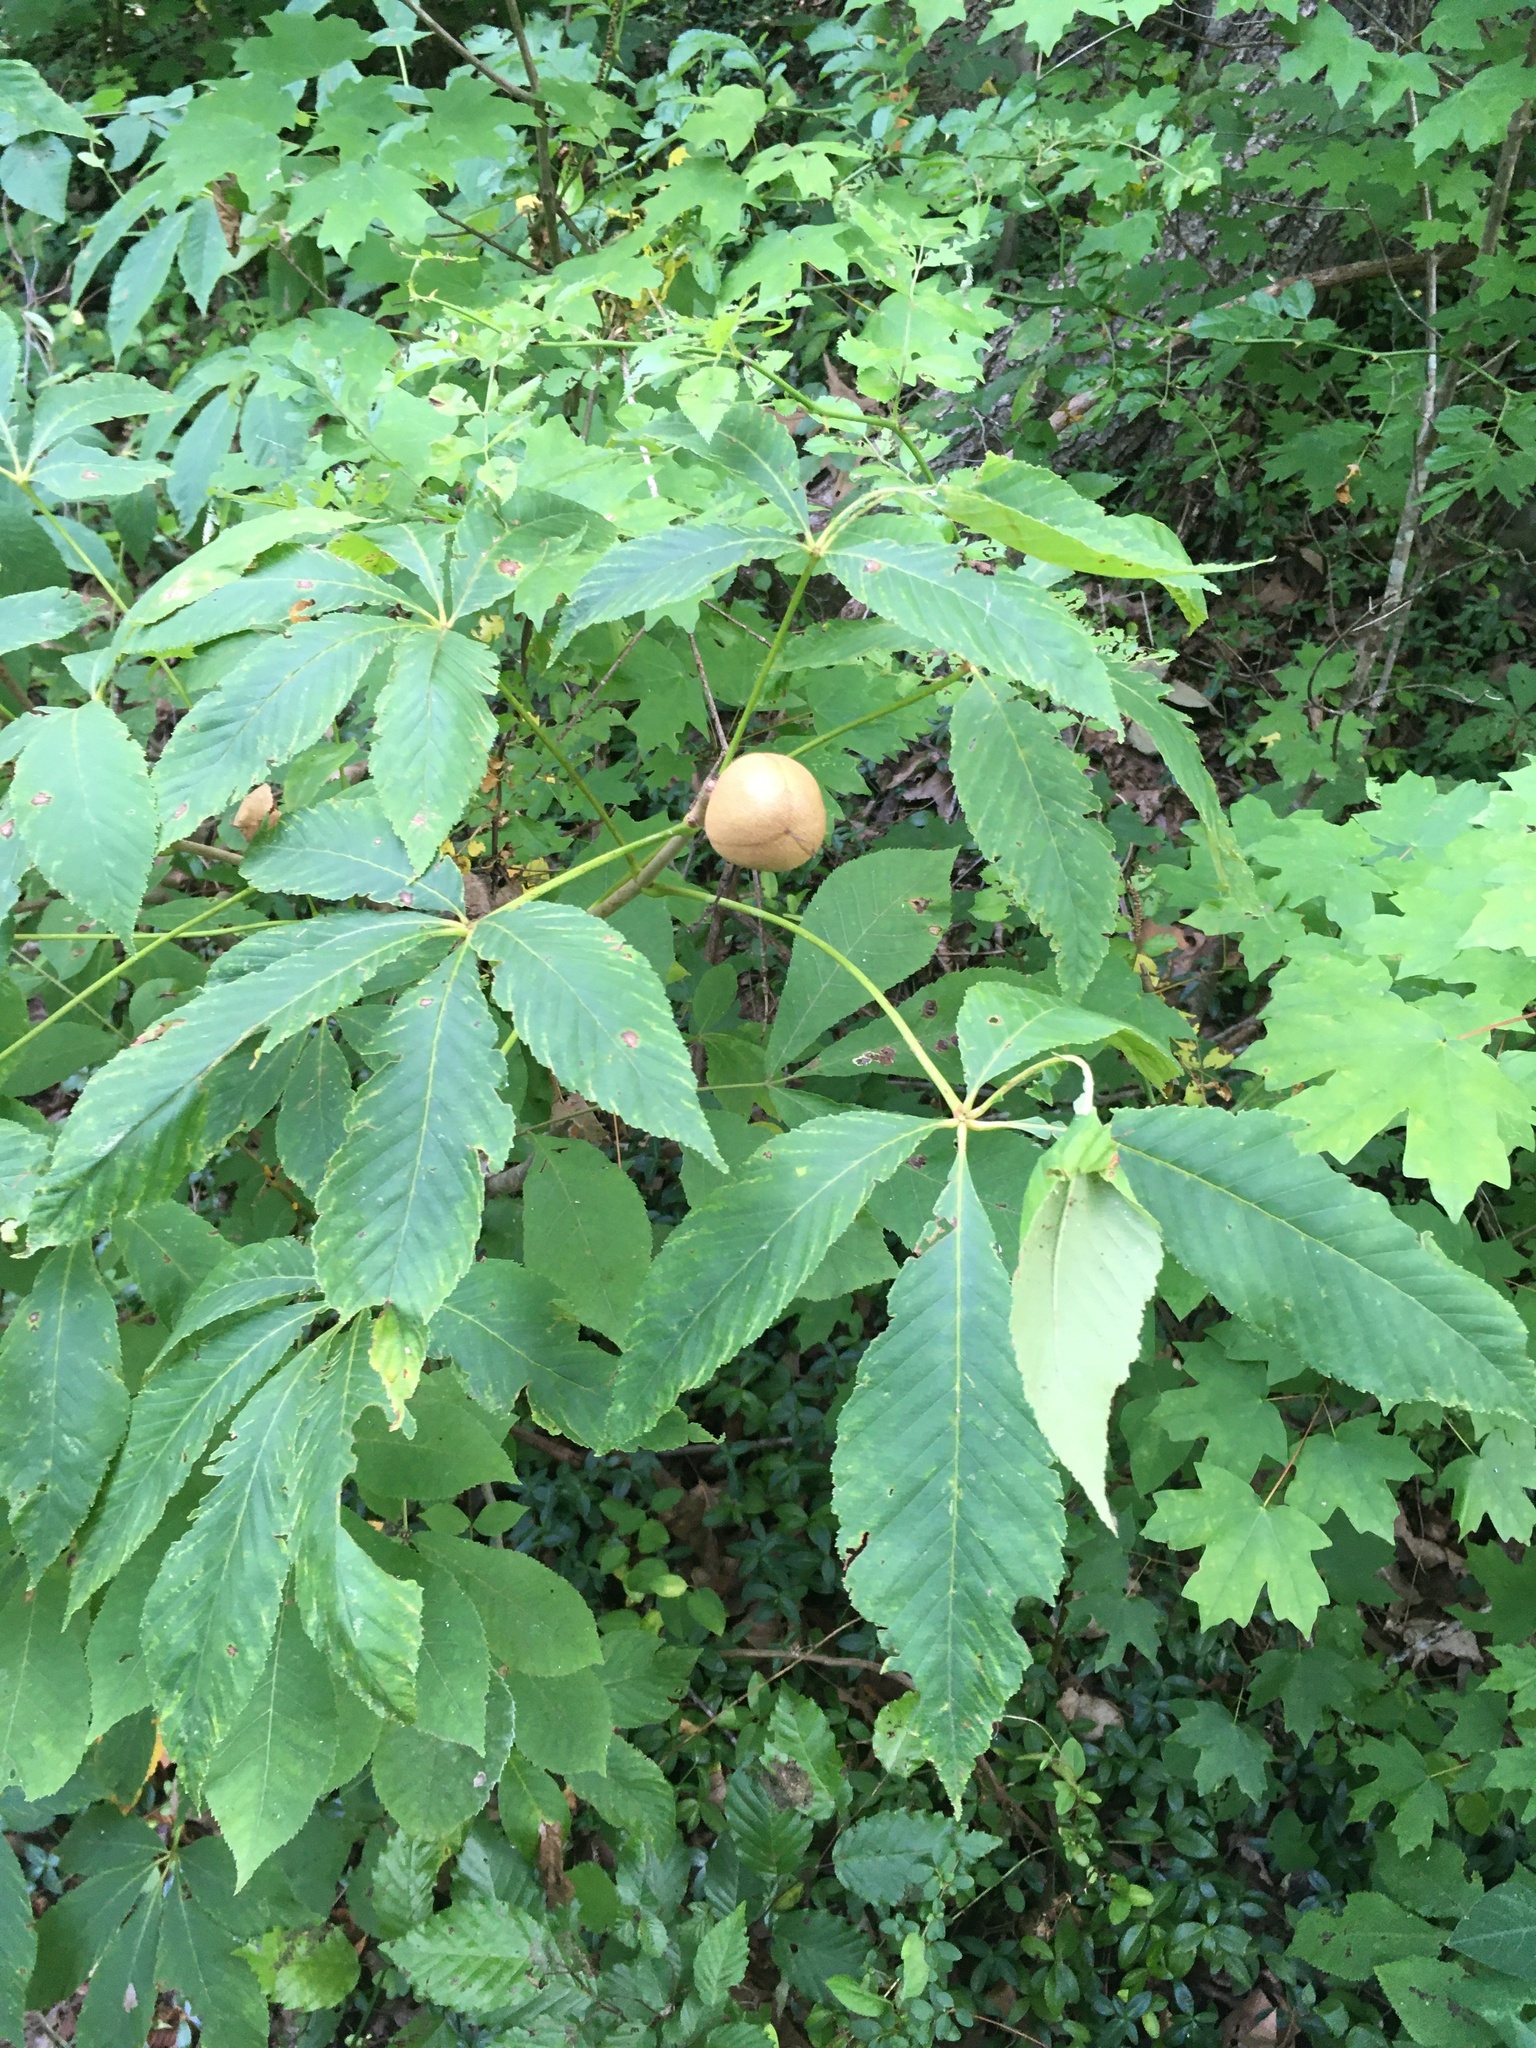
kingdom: Plantae
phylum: Tracheophyta
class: Magnoliopsida
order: Sapindales
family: Sapindaceae
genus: Aesculus
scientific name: Aesculus sylvatica
